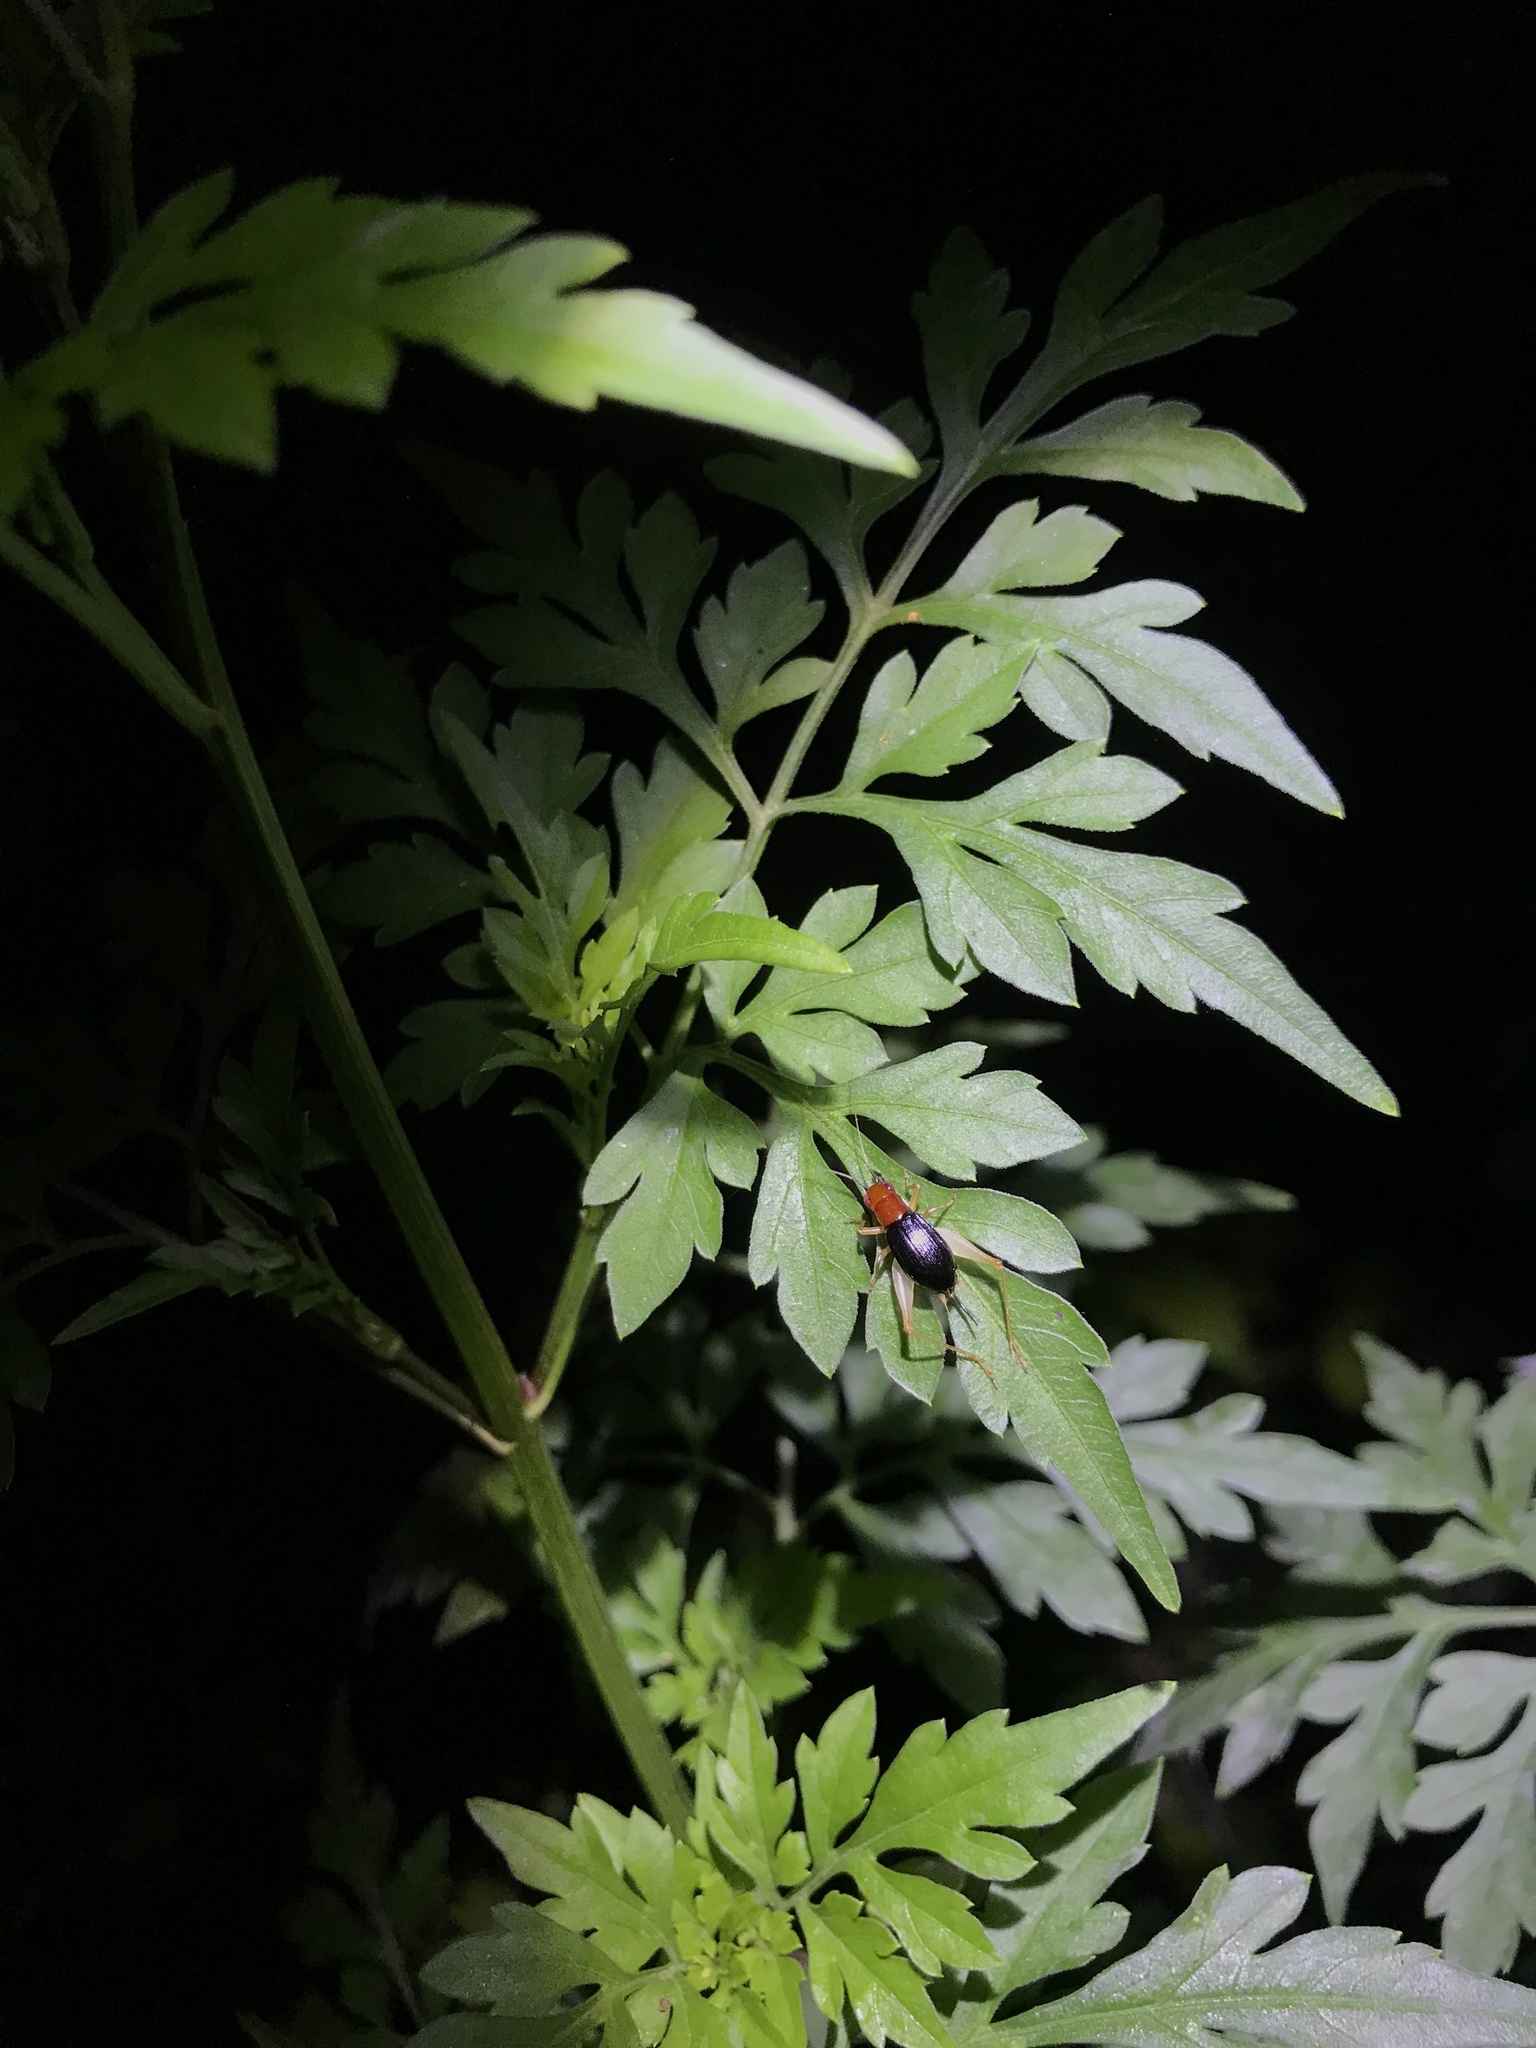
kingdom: Animalia
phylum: Arthropoda
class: Insecta
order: Orthoptera
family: Trigonidiidae
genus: Phyllopalpus
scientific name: Phyllopalpus pulchellus
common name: Handsome trig
